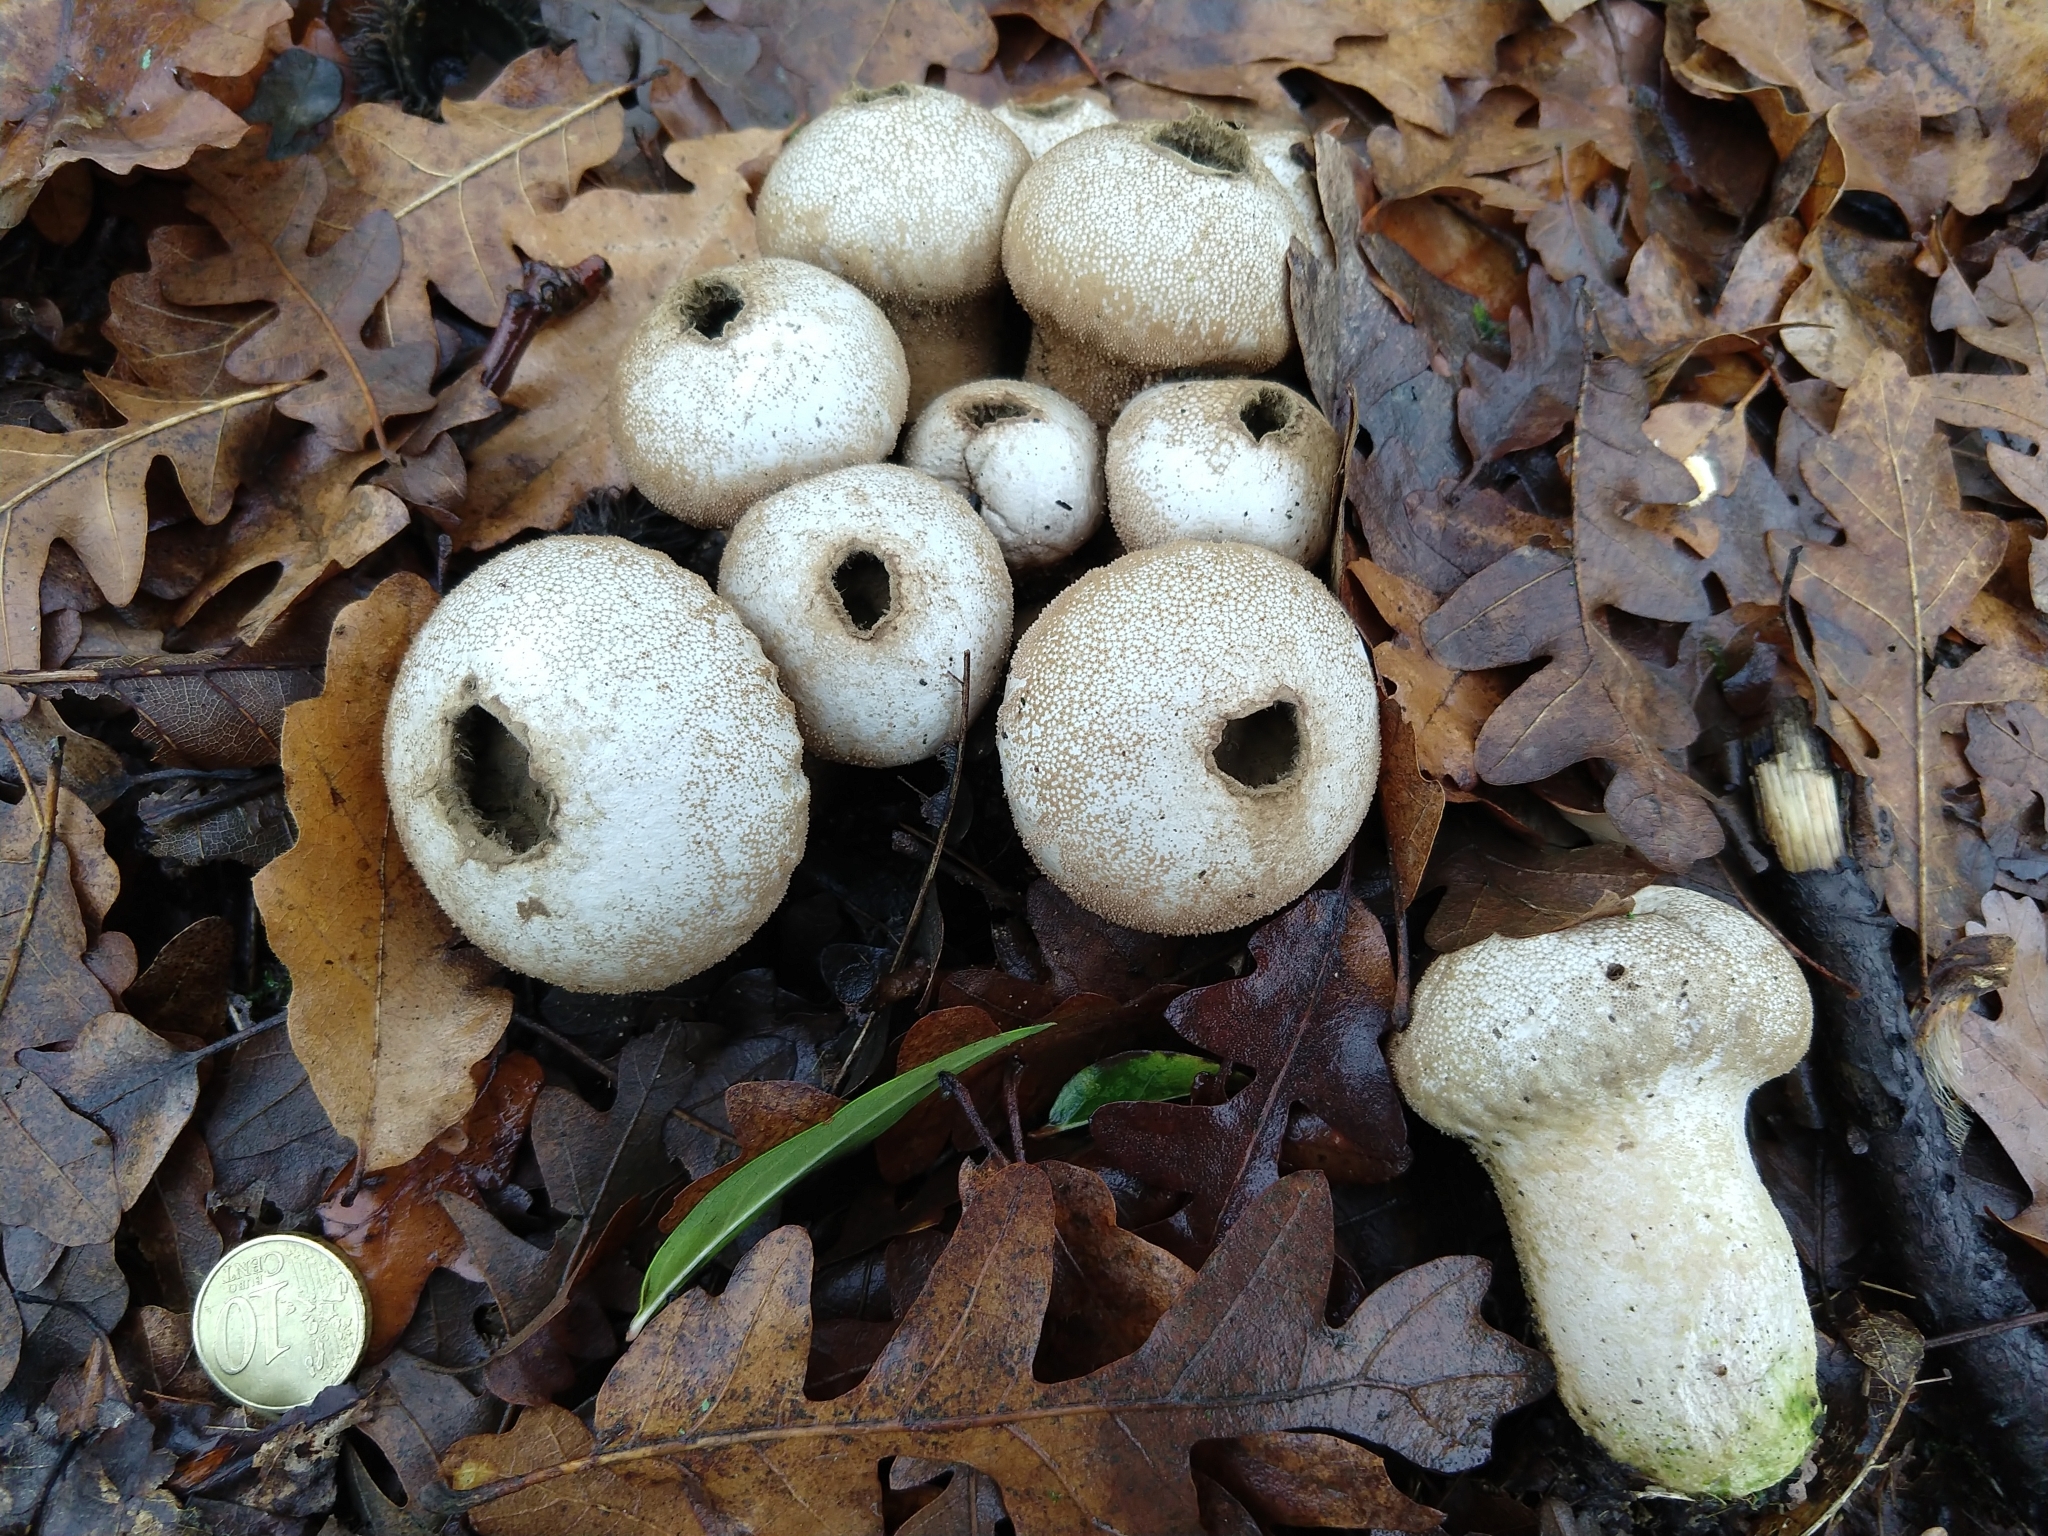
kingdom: Fungi
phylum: Basidiomycota
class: Agaricomycetes
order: Agaricales
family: Lycoperdaceae
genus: Lycoperdon
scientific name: Lycoperdon perlatum
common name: Common puffball
